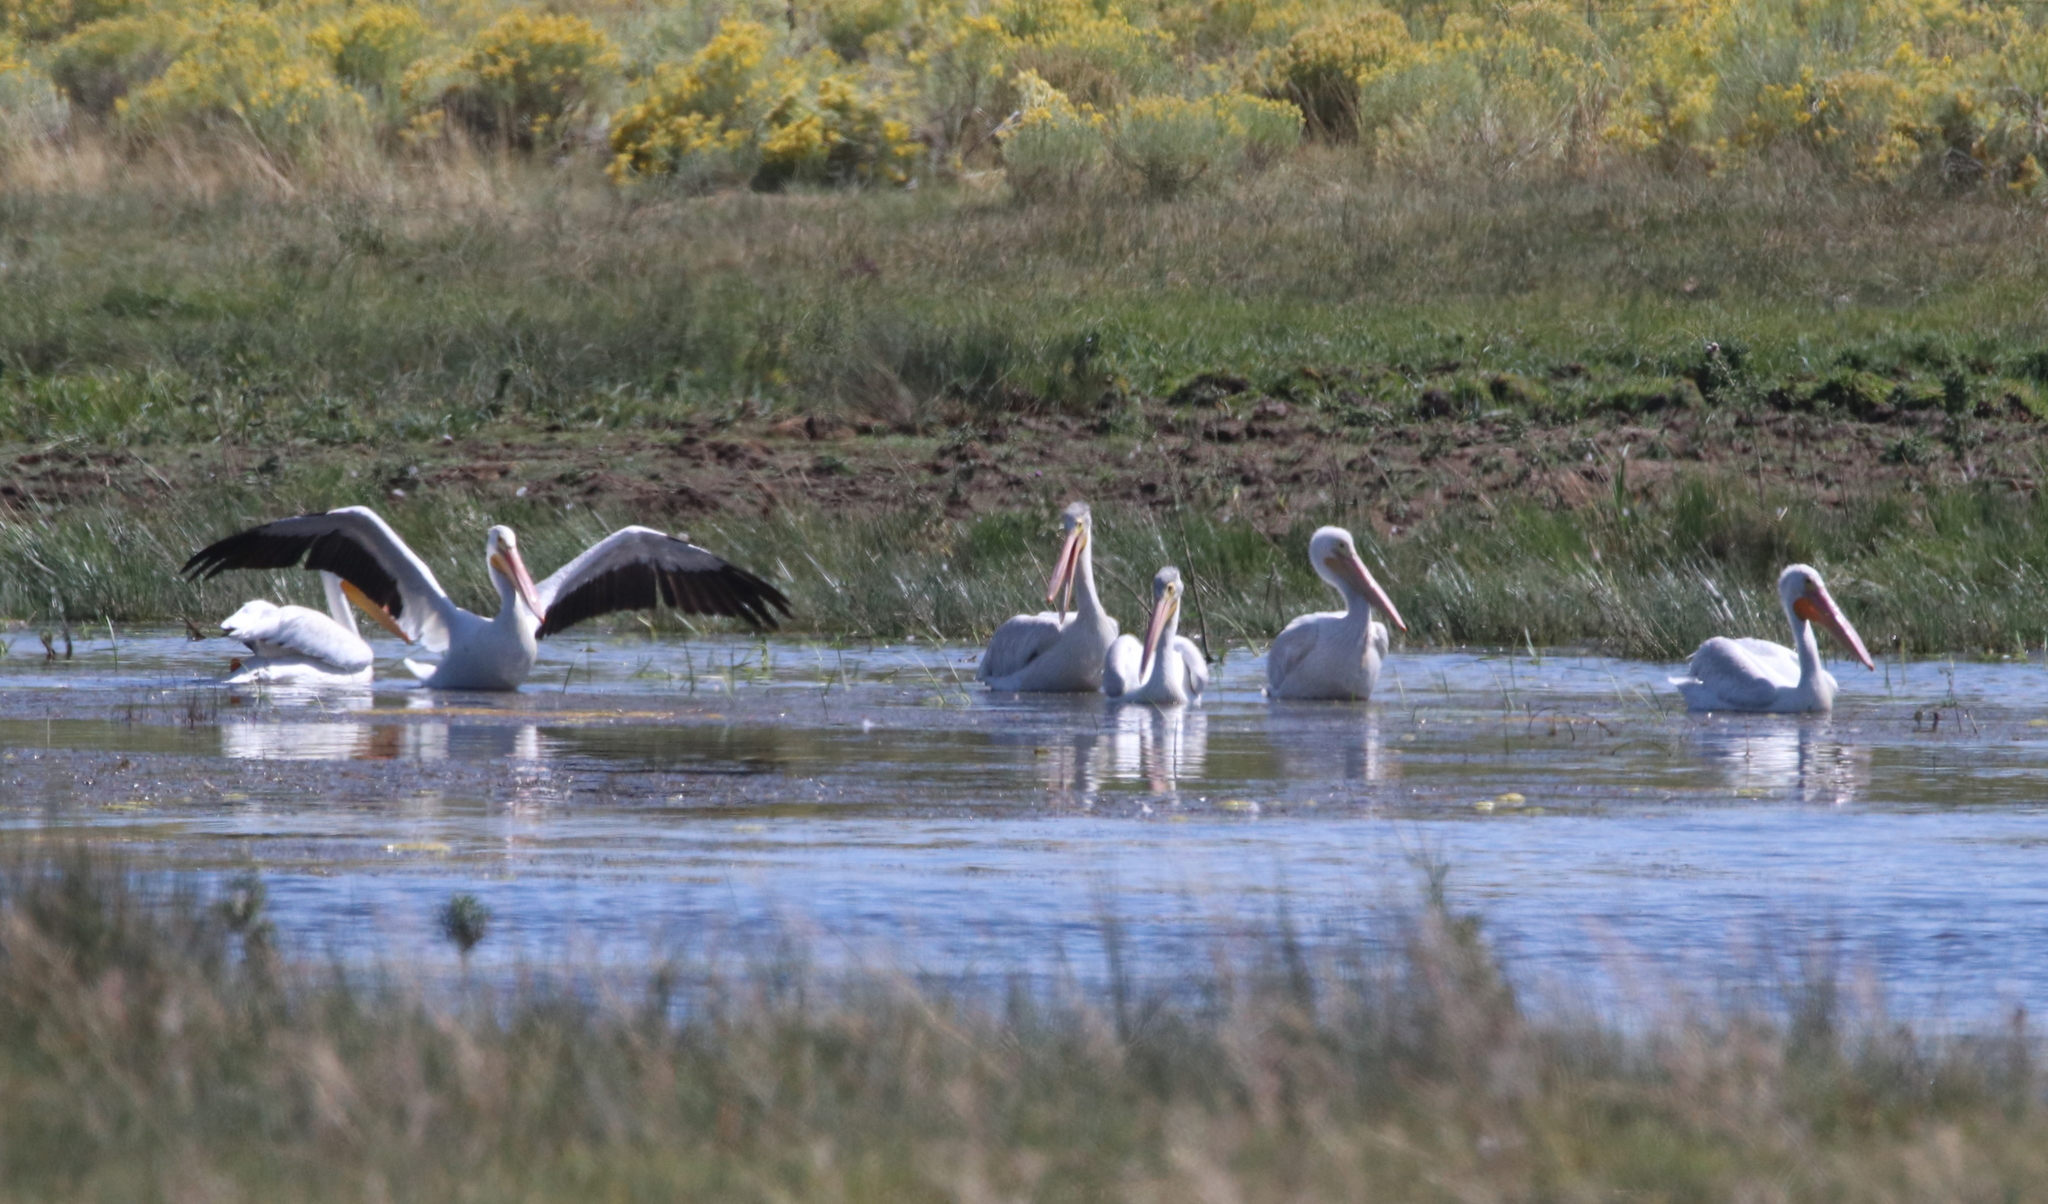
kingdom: Animalia
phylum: Chordata
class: Aves
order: Pelecaniformes
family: Pelecanidae
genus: Pelecanus
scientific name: Pelecanus erythrorhynchos
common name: American white pelican
